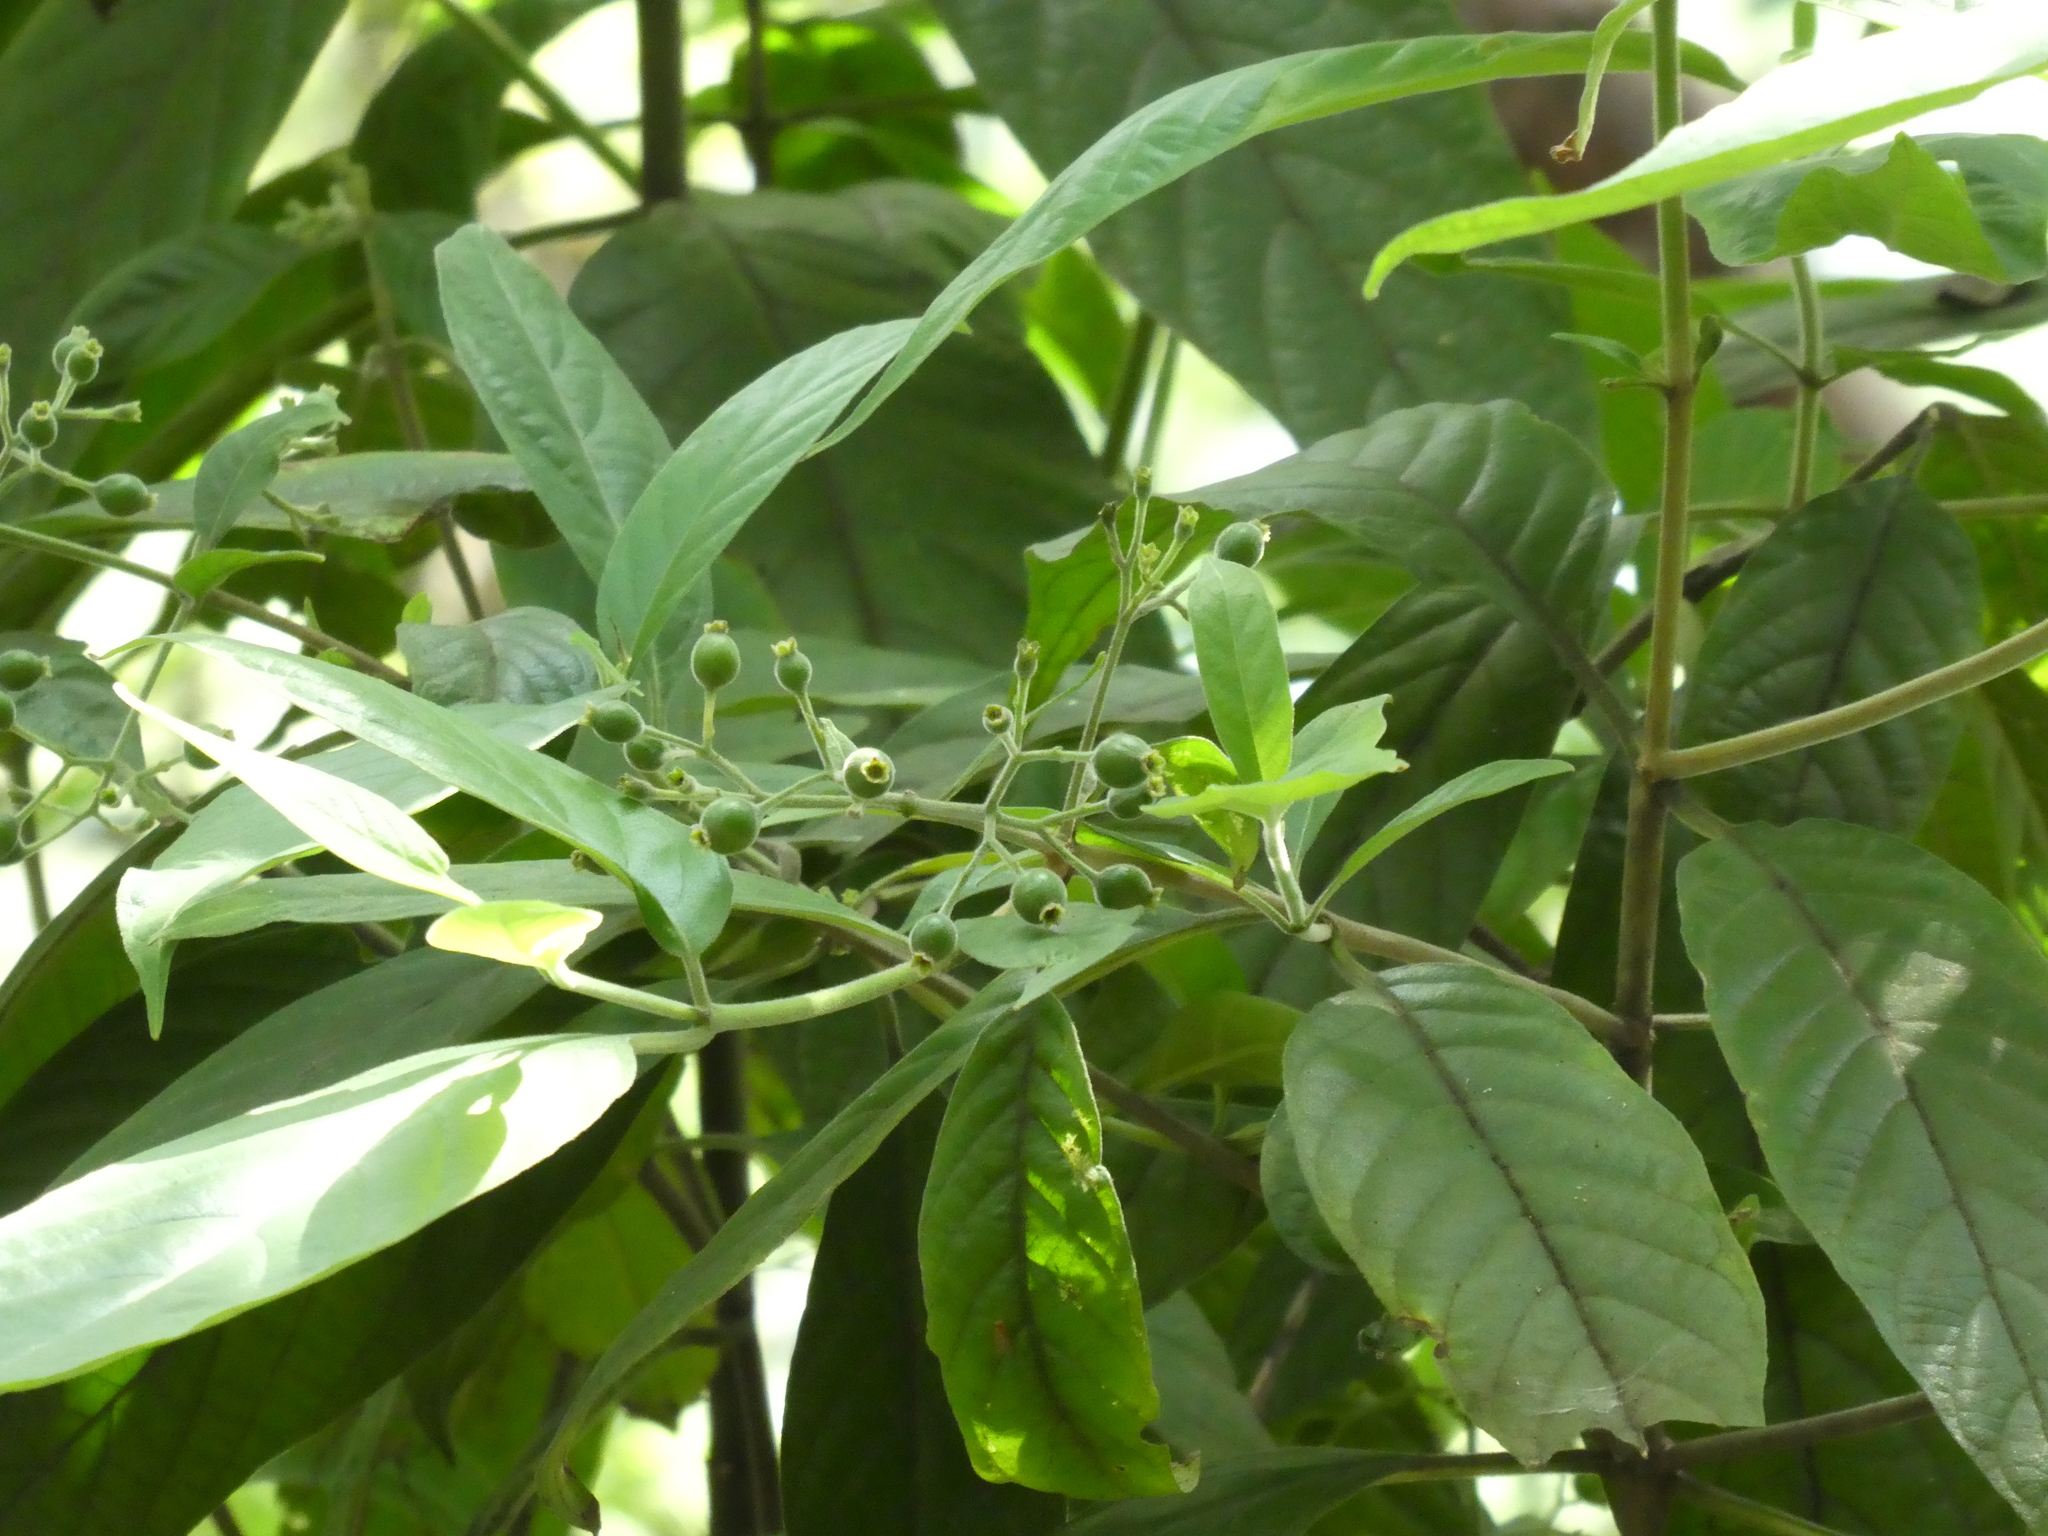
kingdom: Plantae
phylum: Tracheophyta
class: Magnoliopsida
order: Gentianales
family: Rubiaceae
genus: Tarenna
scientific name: Tarenna mollissima
